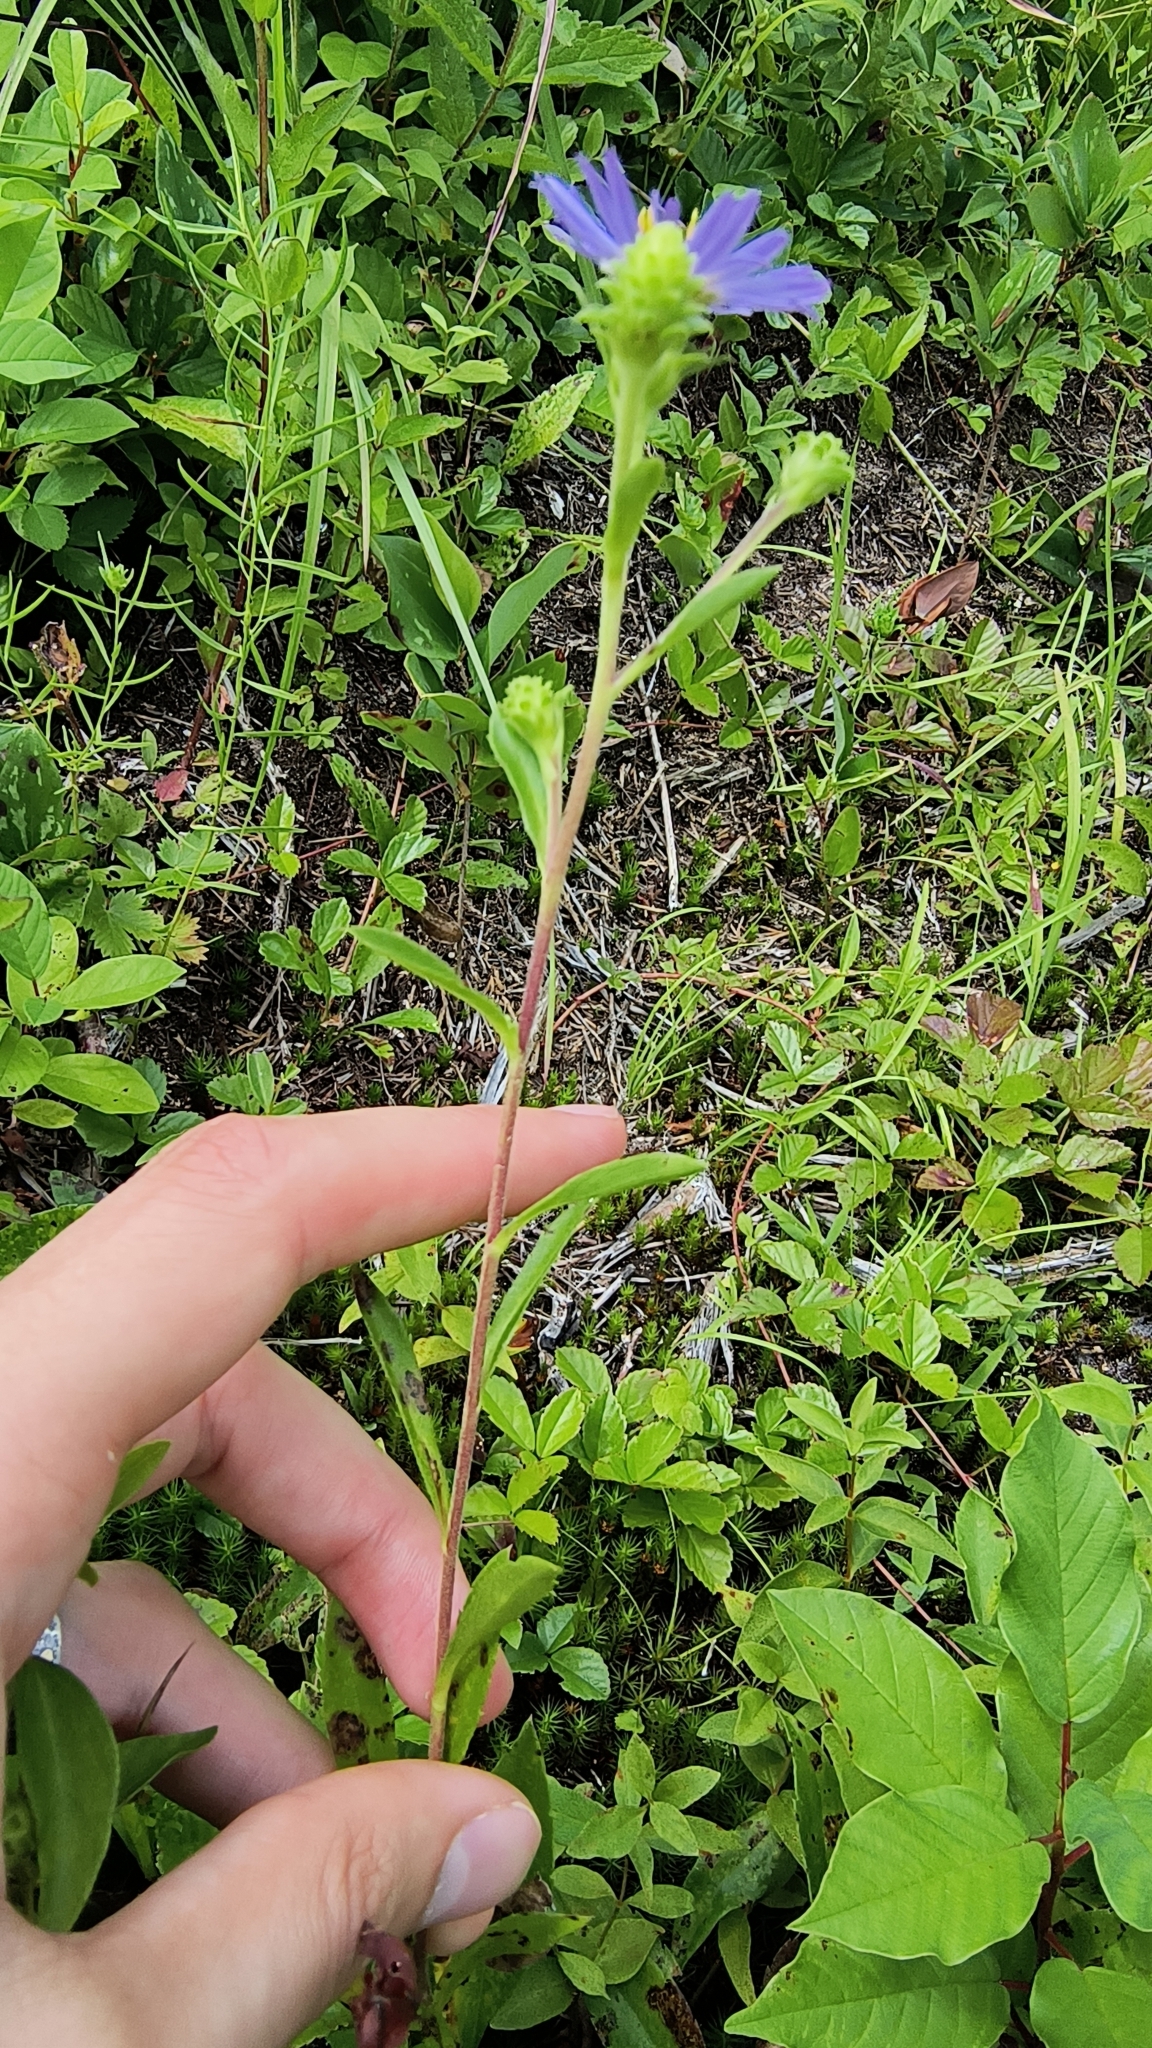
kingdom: Plantae
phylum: Tracheophyta
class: Magnoliopsida
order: Asterales
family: Asteraceae
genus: Eurybia
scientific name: Eurybia spectabilis
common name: Low showy aster
